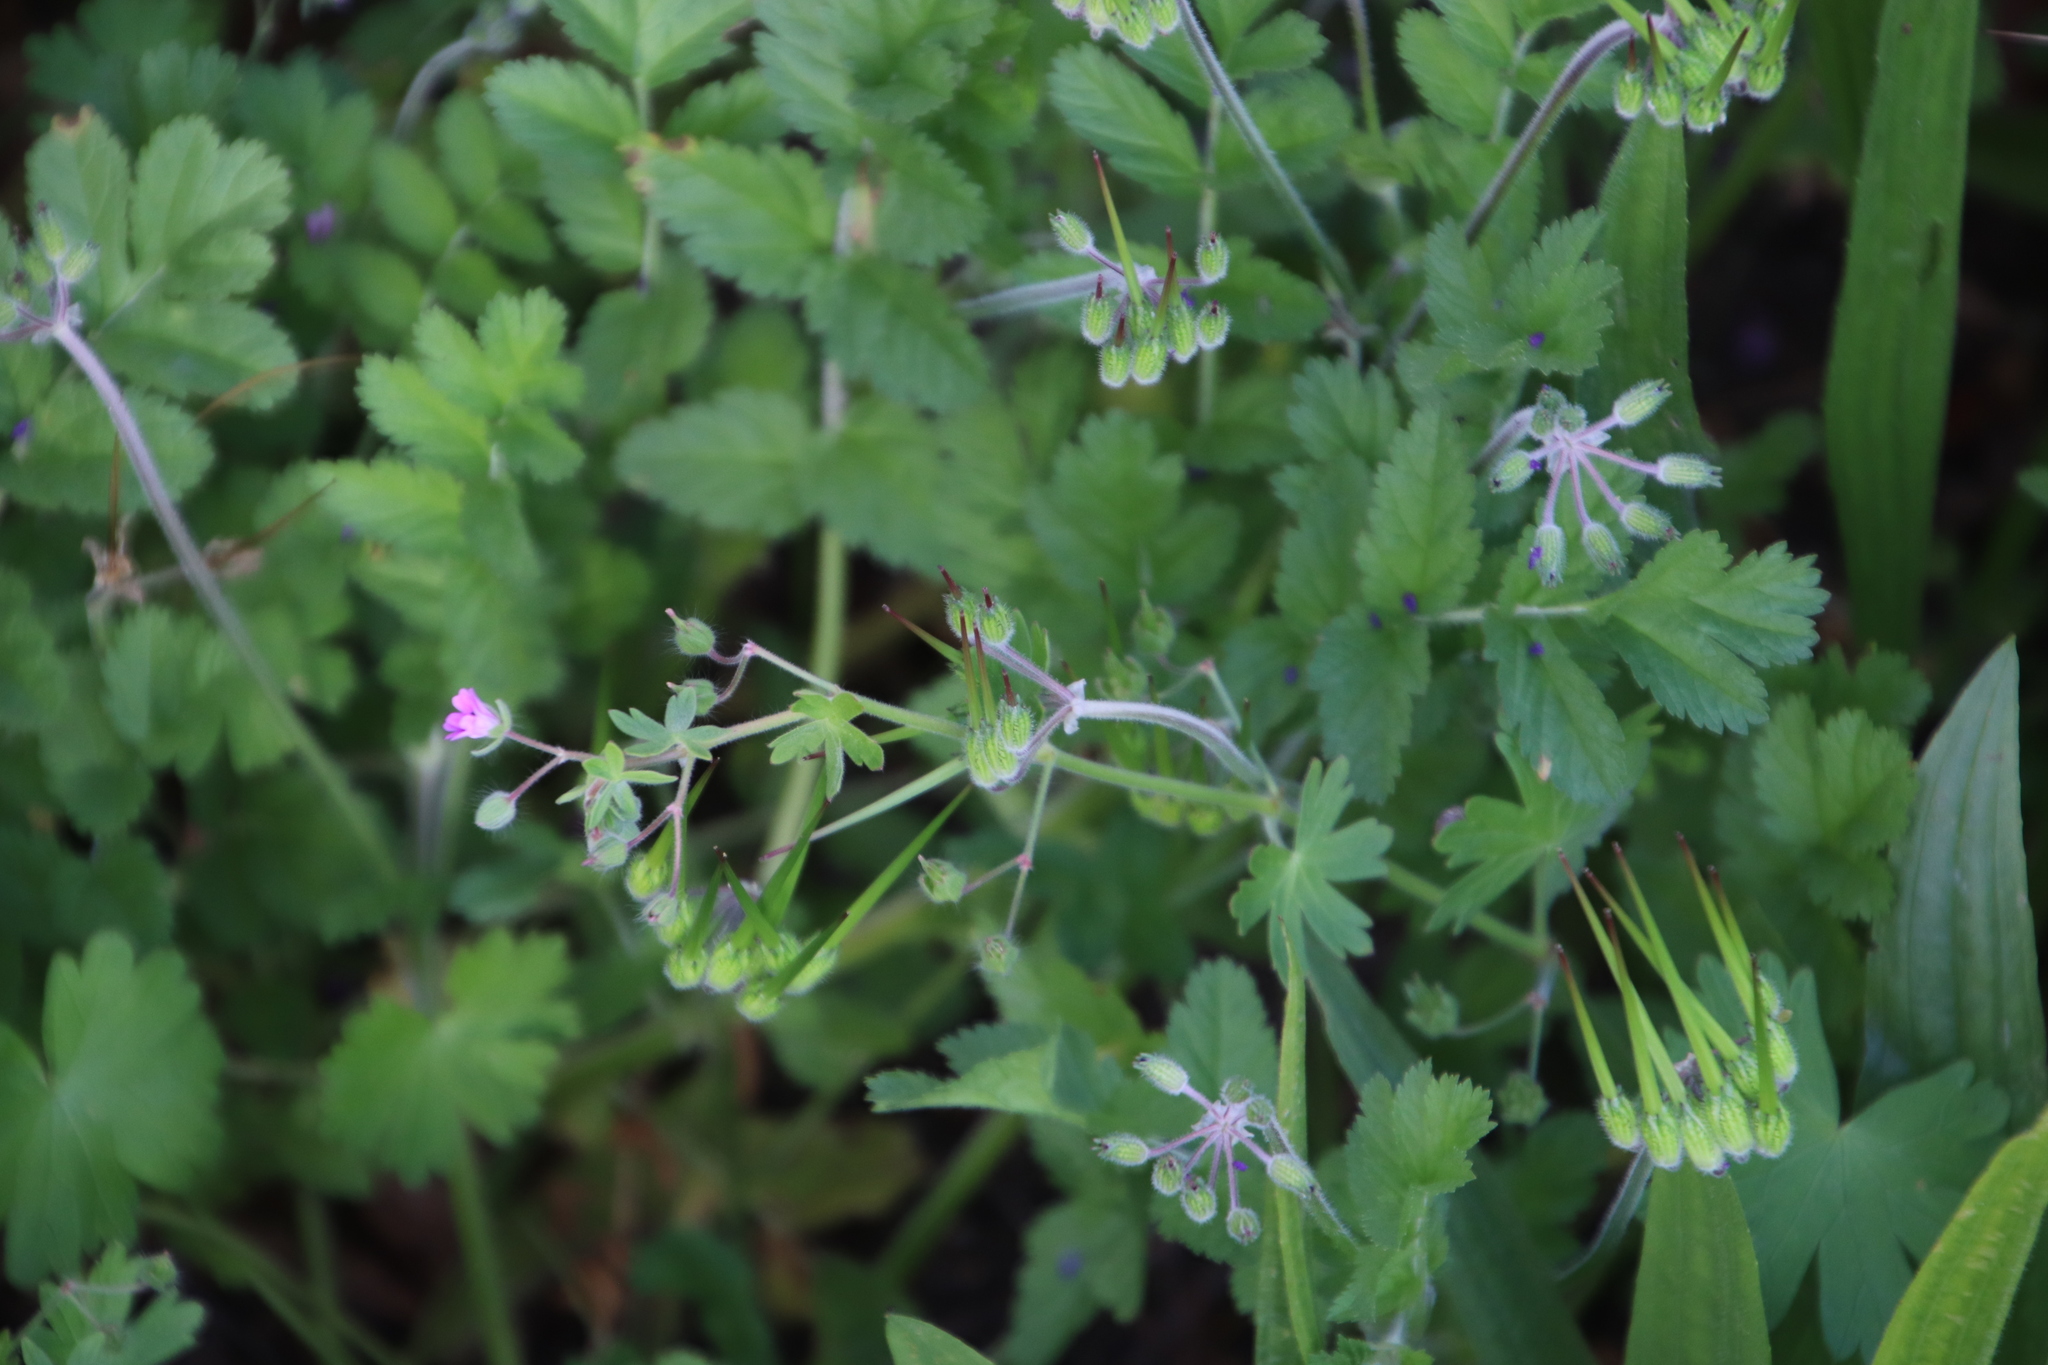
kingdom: Plantae
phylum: Tracheophyta
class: Magnoliopsida
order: Geraniales
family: Geraniaceae
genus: Erodium
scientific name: Erodium moschatum
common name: Musk stork's-bill
